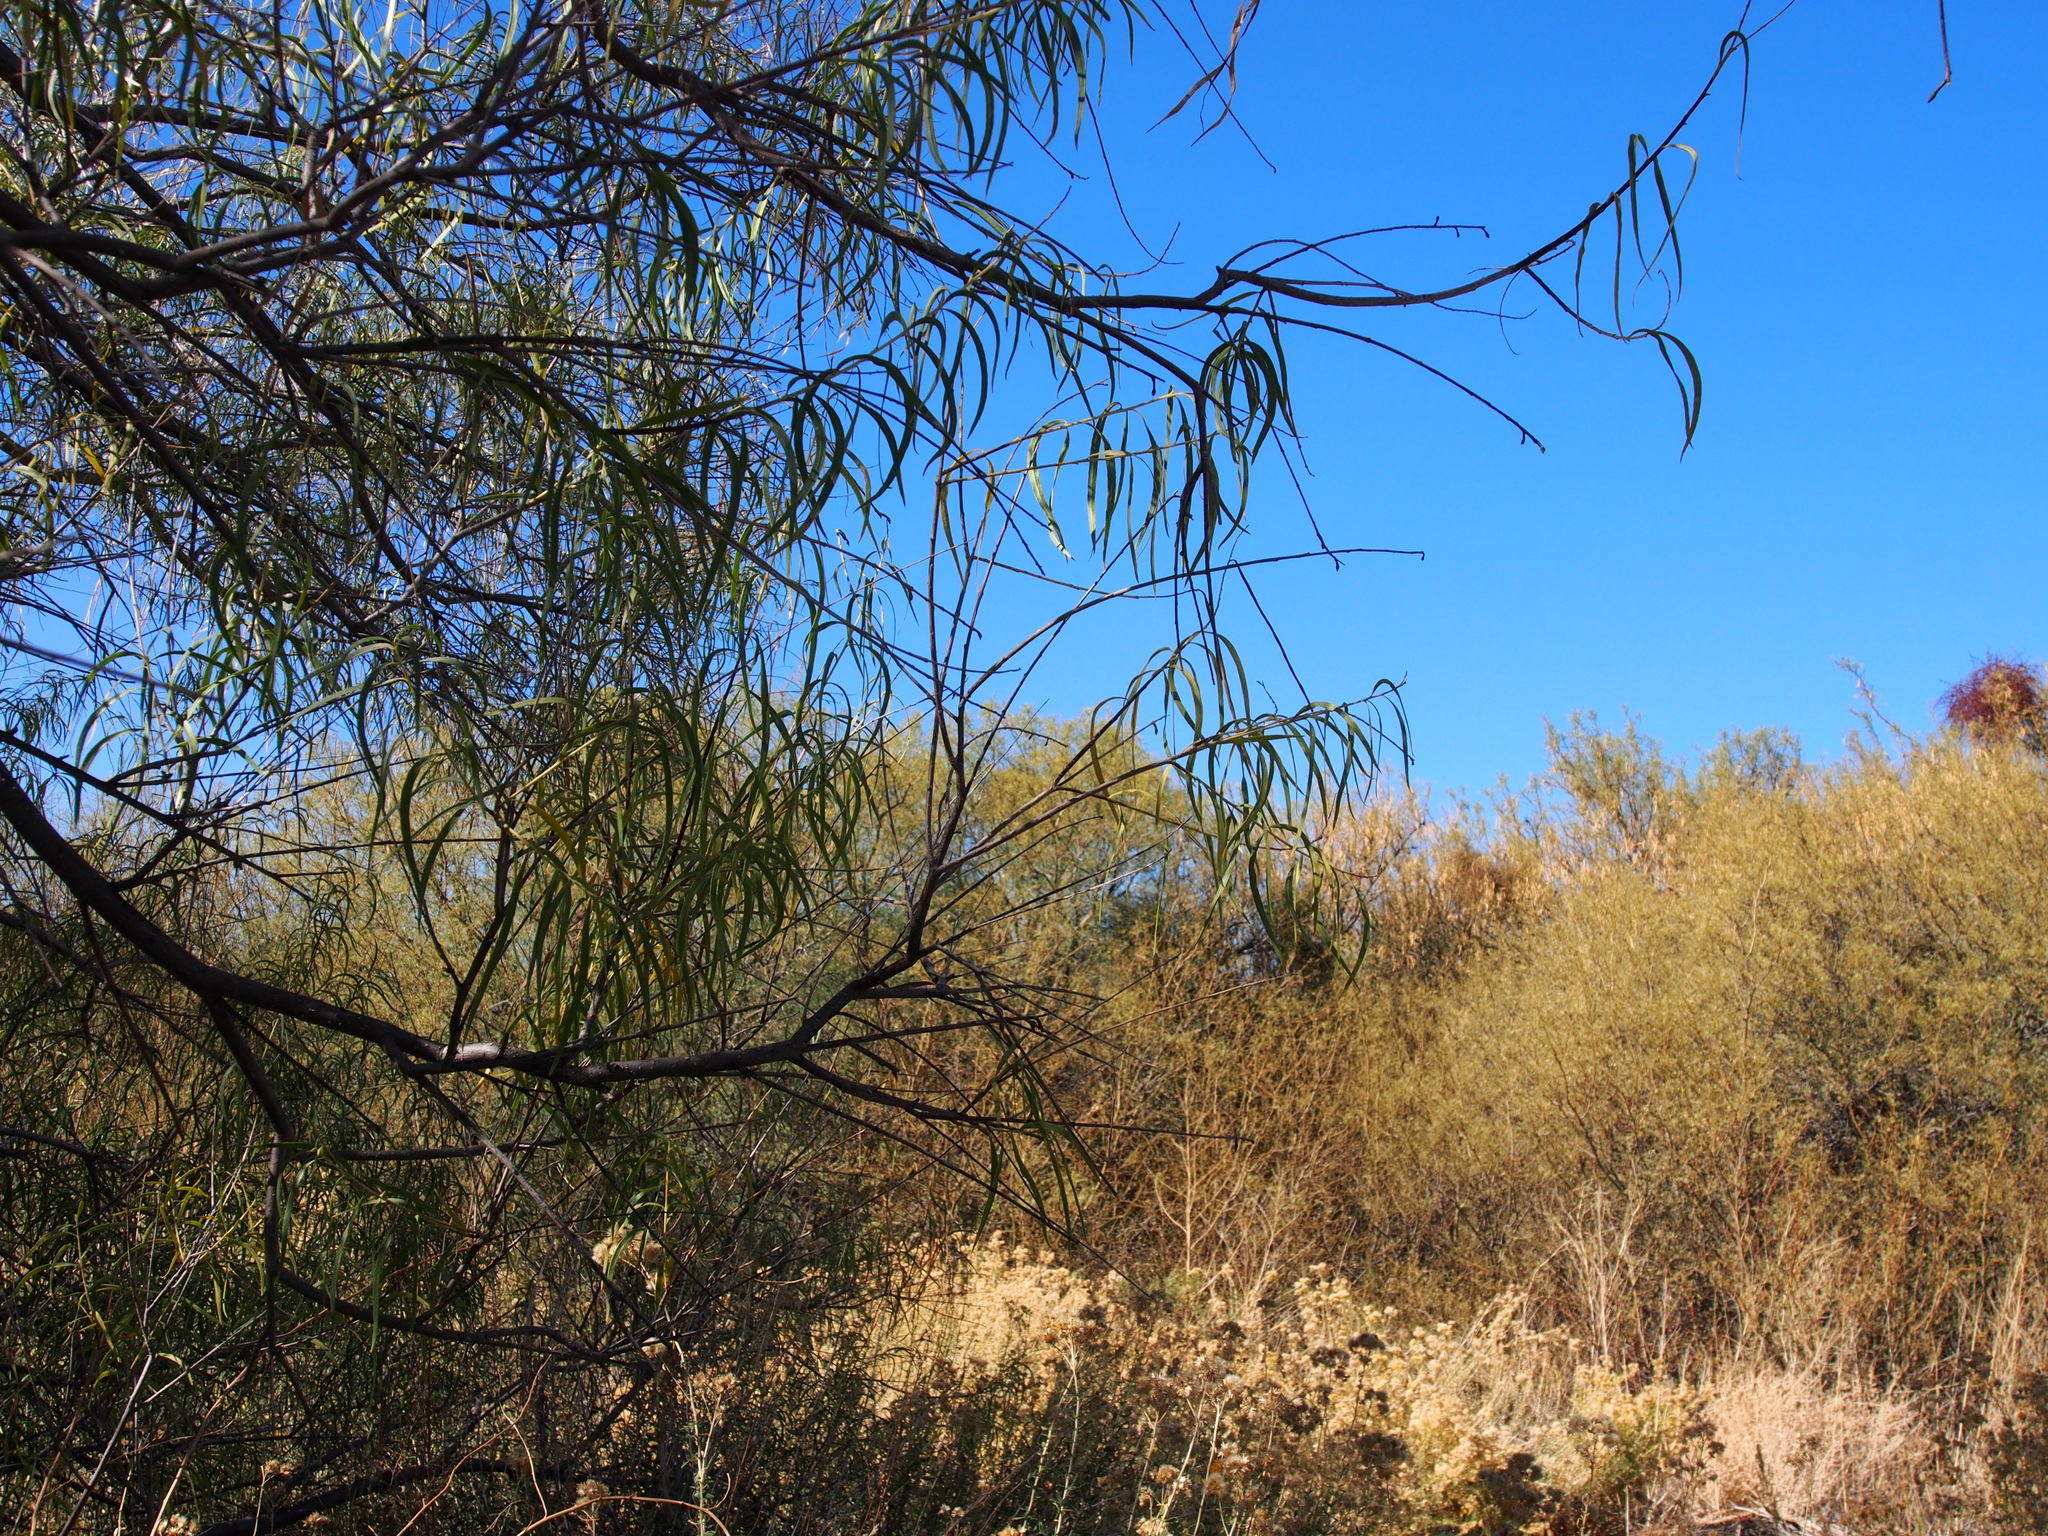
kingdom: Plantae
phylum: Tracheophyta
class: Magnoliopsida
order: Lamiales
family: Bignoniaceae
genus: Chilopsis
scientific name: Chilopsis linearis
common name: Desert-willow
